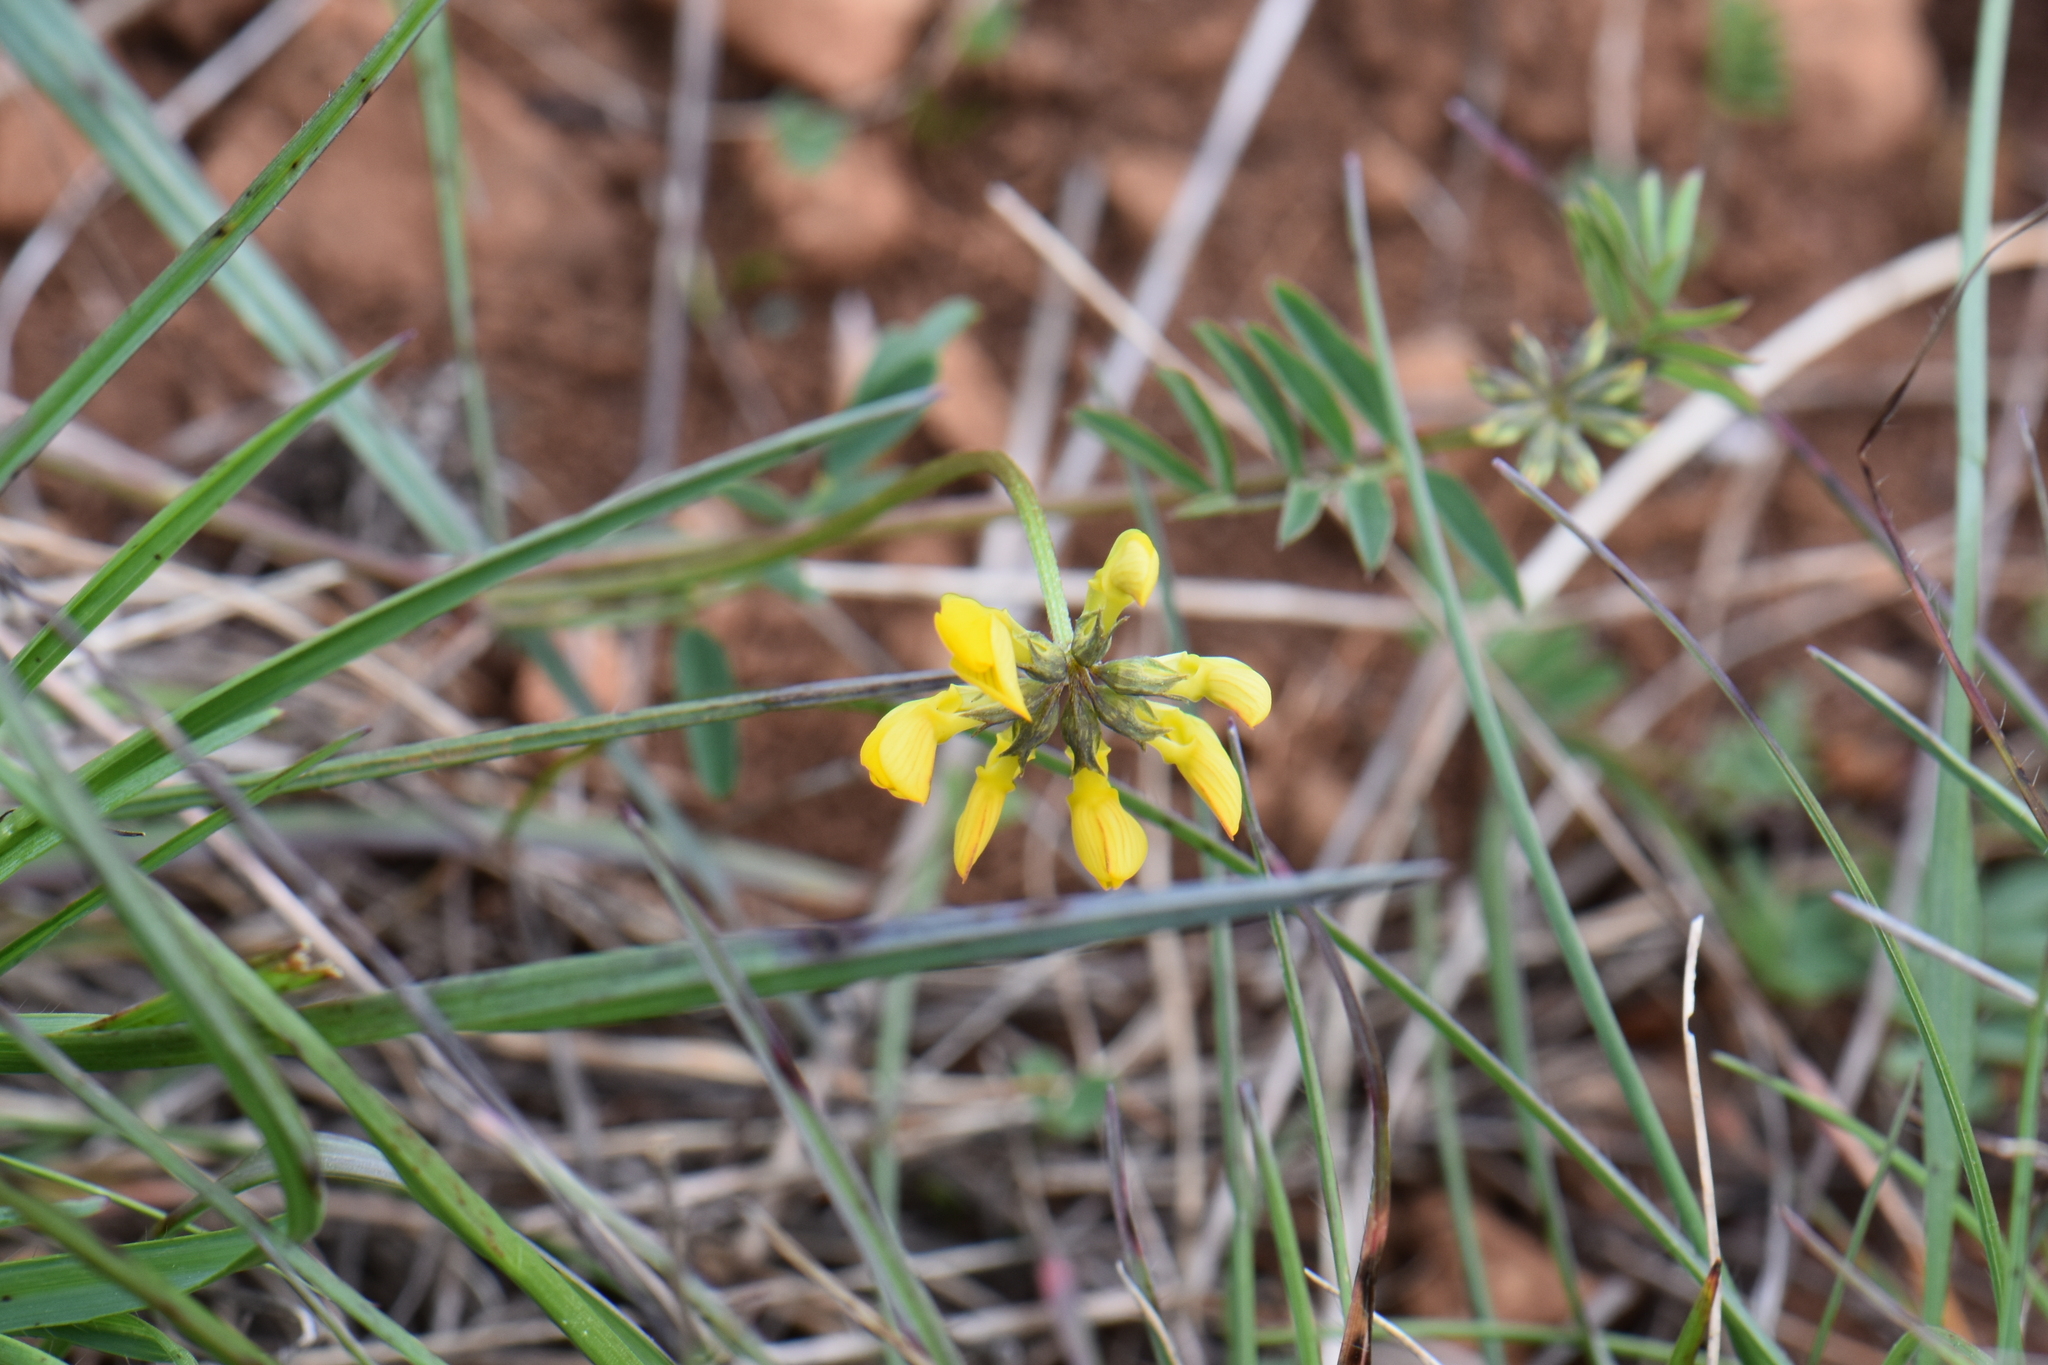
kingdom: Plantae
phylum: Tracheophyta
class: Magnoliopsida
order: Fabales
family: Fabaceae
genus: Hippocrepis
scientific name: Hippocrepis comosa
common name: Horseshoe vetch
